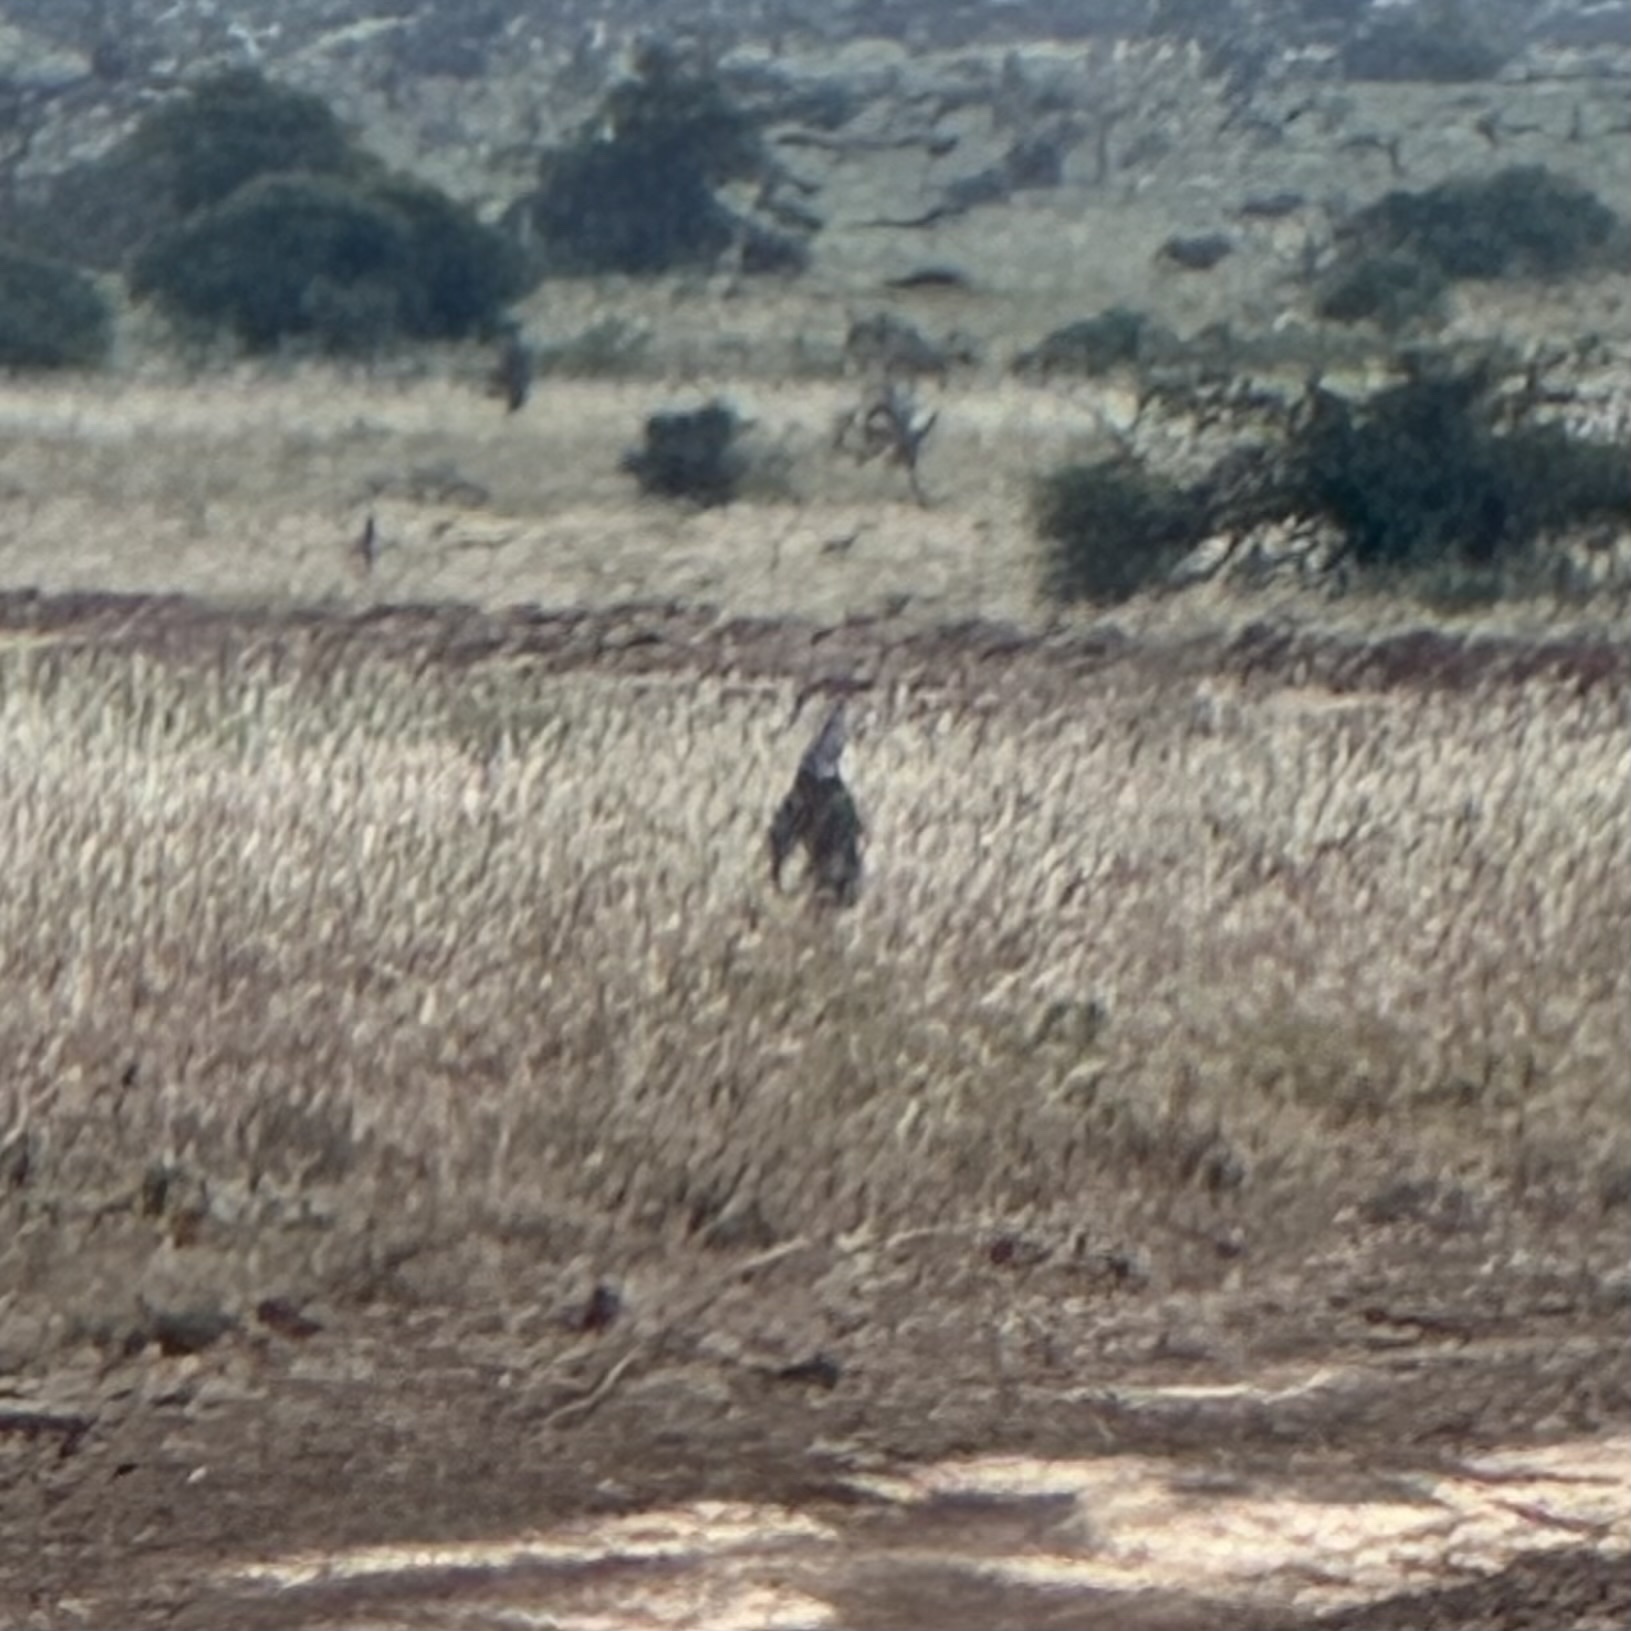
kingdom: Animalia
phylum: Chordata
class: Aves
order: Otidiformes
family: Otididae
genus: Ardeotis
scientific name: Ardeotis kori
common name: Kori bustard
